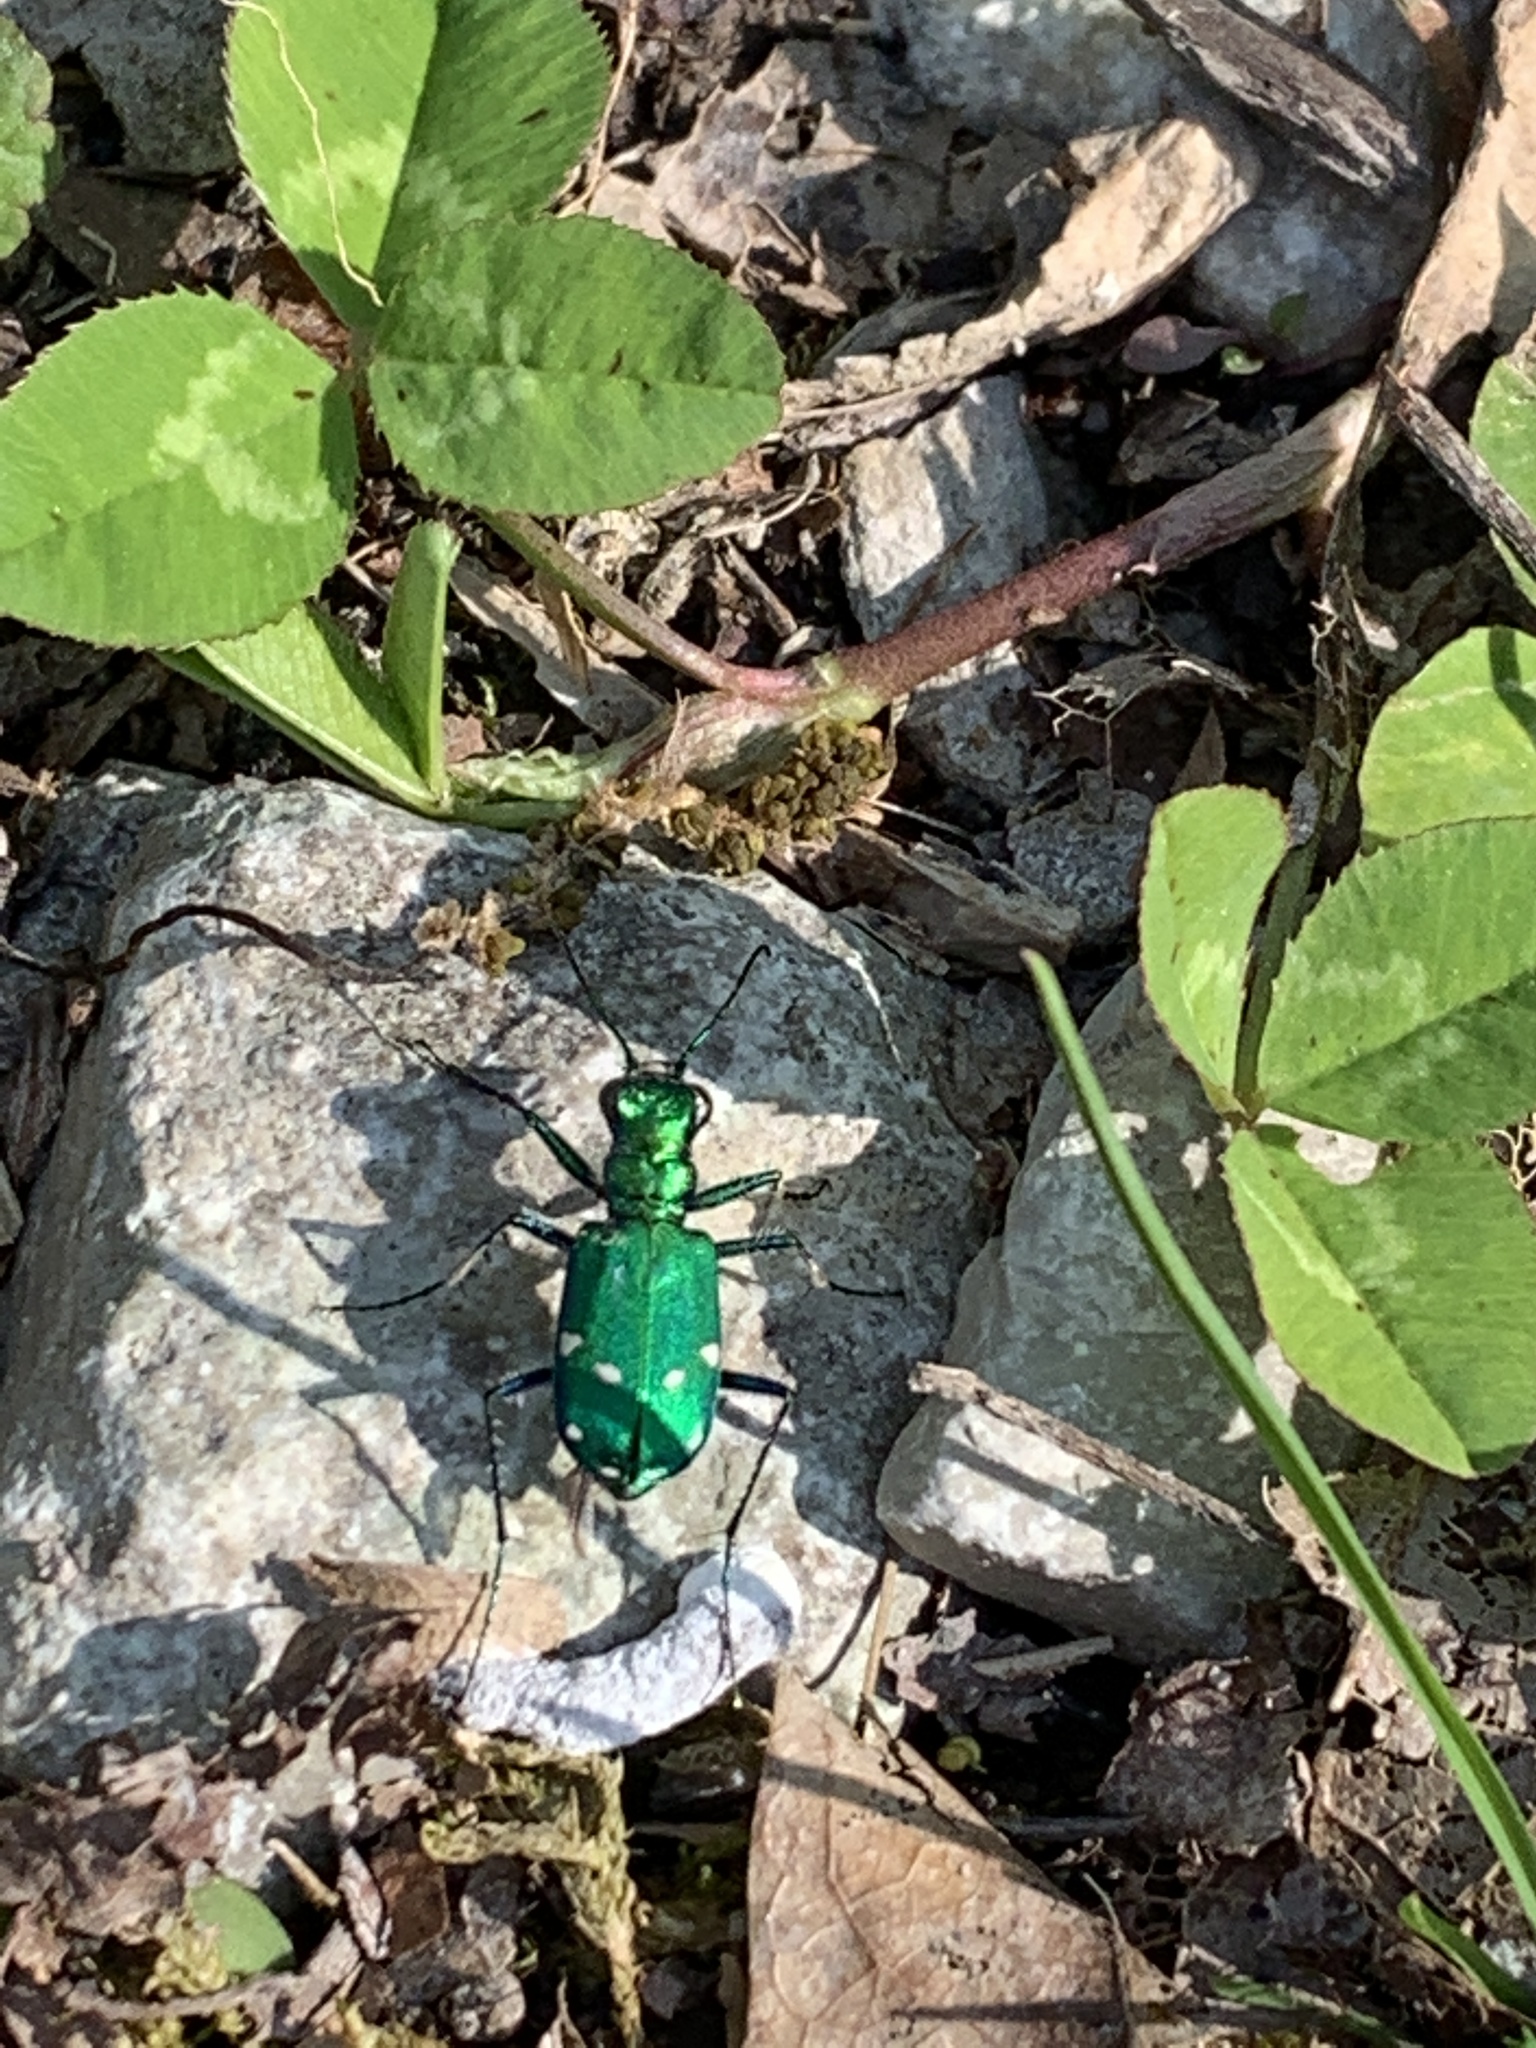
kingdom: Animalia
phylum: Arthropoda
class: Insecta
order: Coleoptera
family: Carabidae
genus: Cicindela
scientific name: Cicindela sexguttata
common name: Six-spotted tiger beetle
